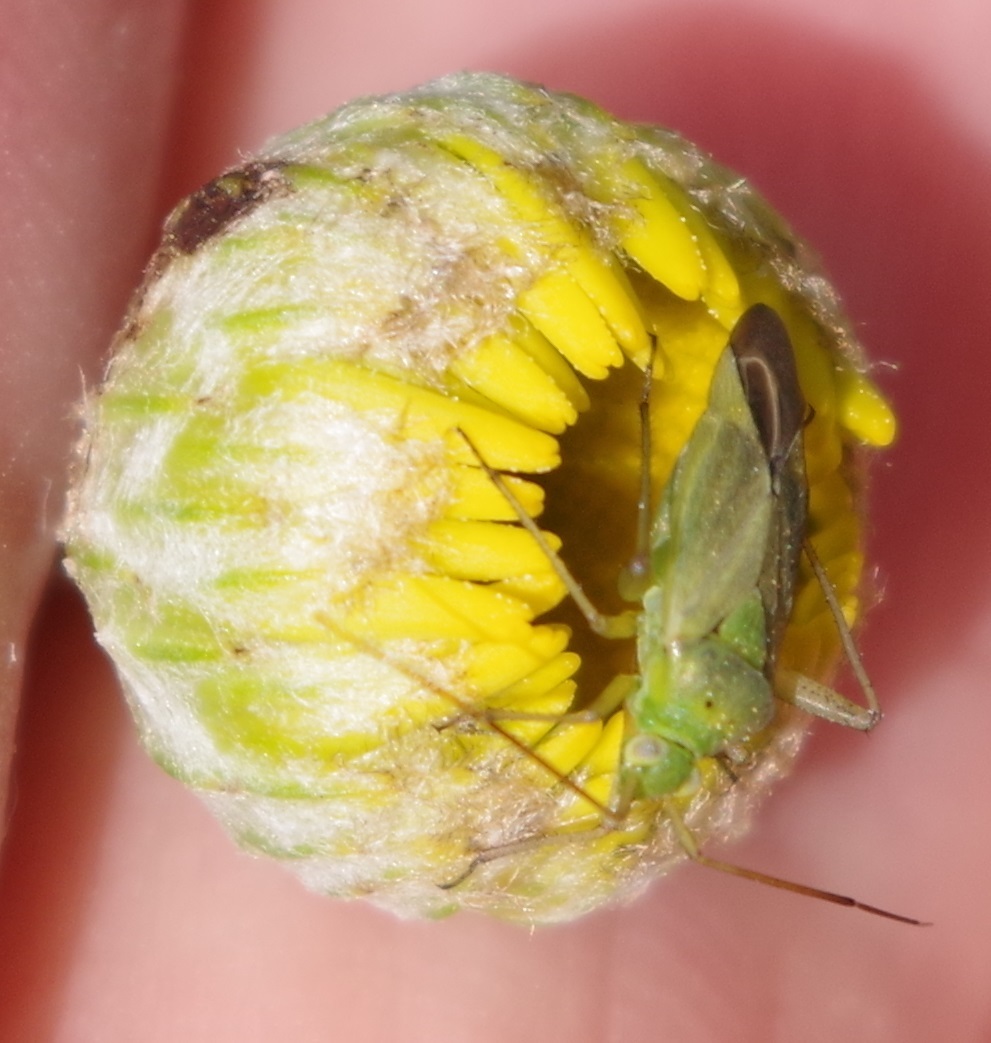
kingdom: Animalia
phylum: Arthropoda
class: Insecta
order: Hemiptera
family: Miridae
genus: Closterotomus
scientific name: Closterotomus norvegicus
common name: Plant bug
